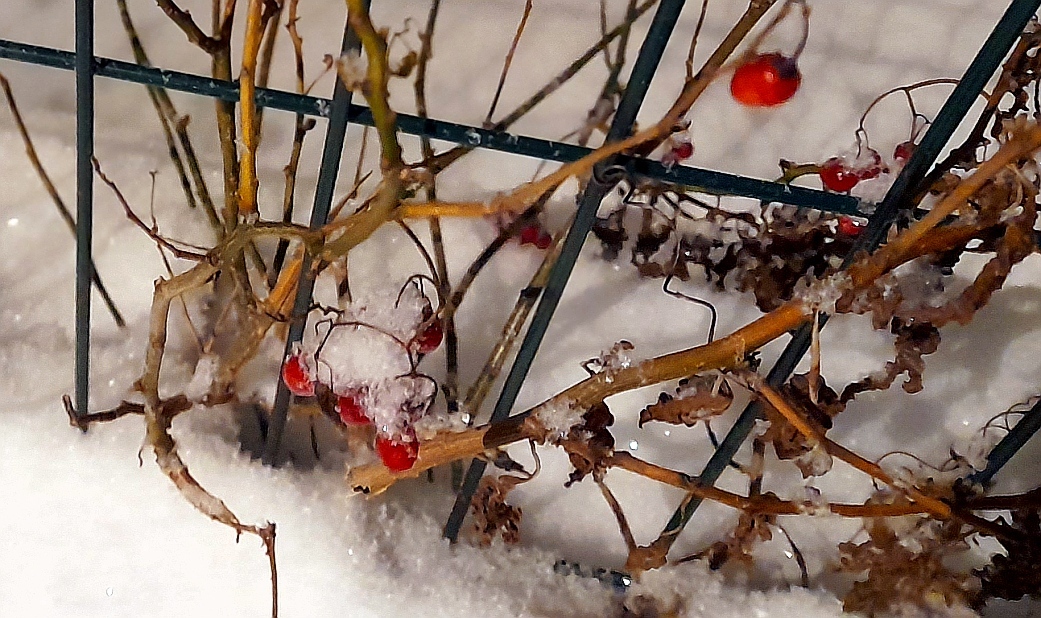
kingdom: Plantae
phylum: Tracheophyta
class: Magnoliopsida
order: Solanales
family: Solanaceae
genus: Solanum
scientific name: Solanum dulcamara
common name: Climbing nightshade
